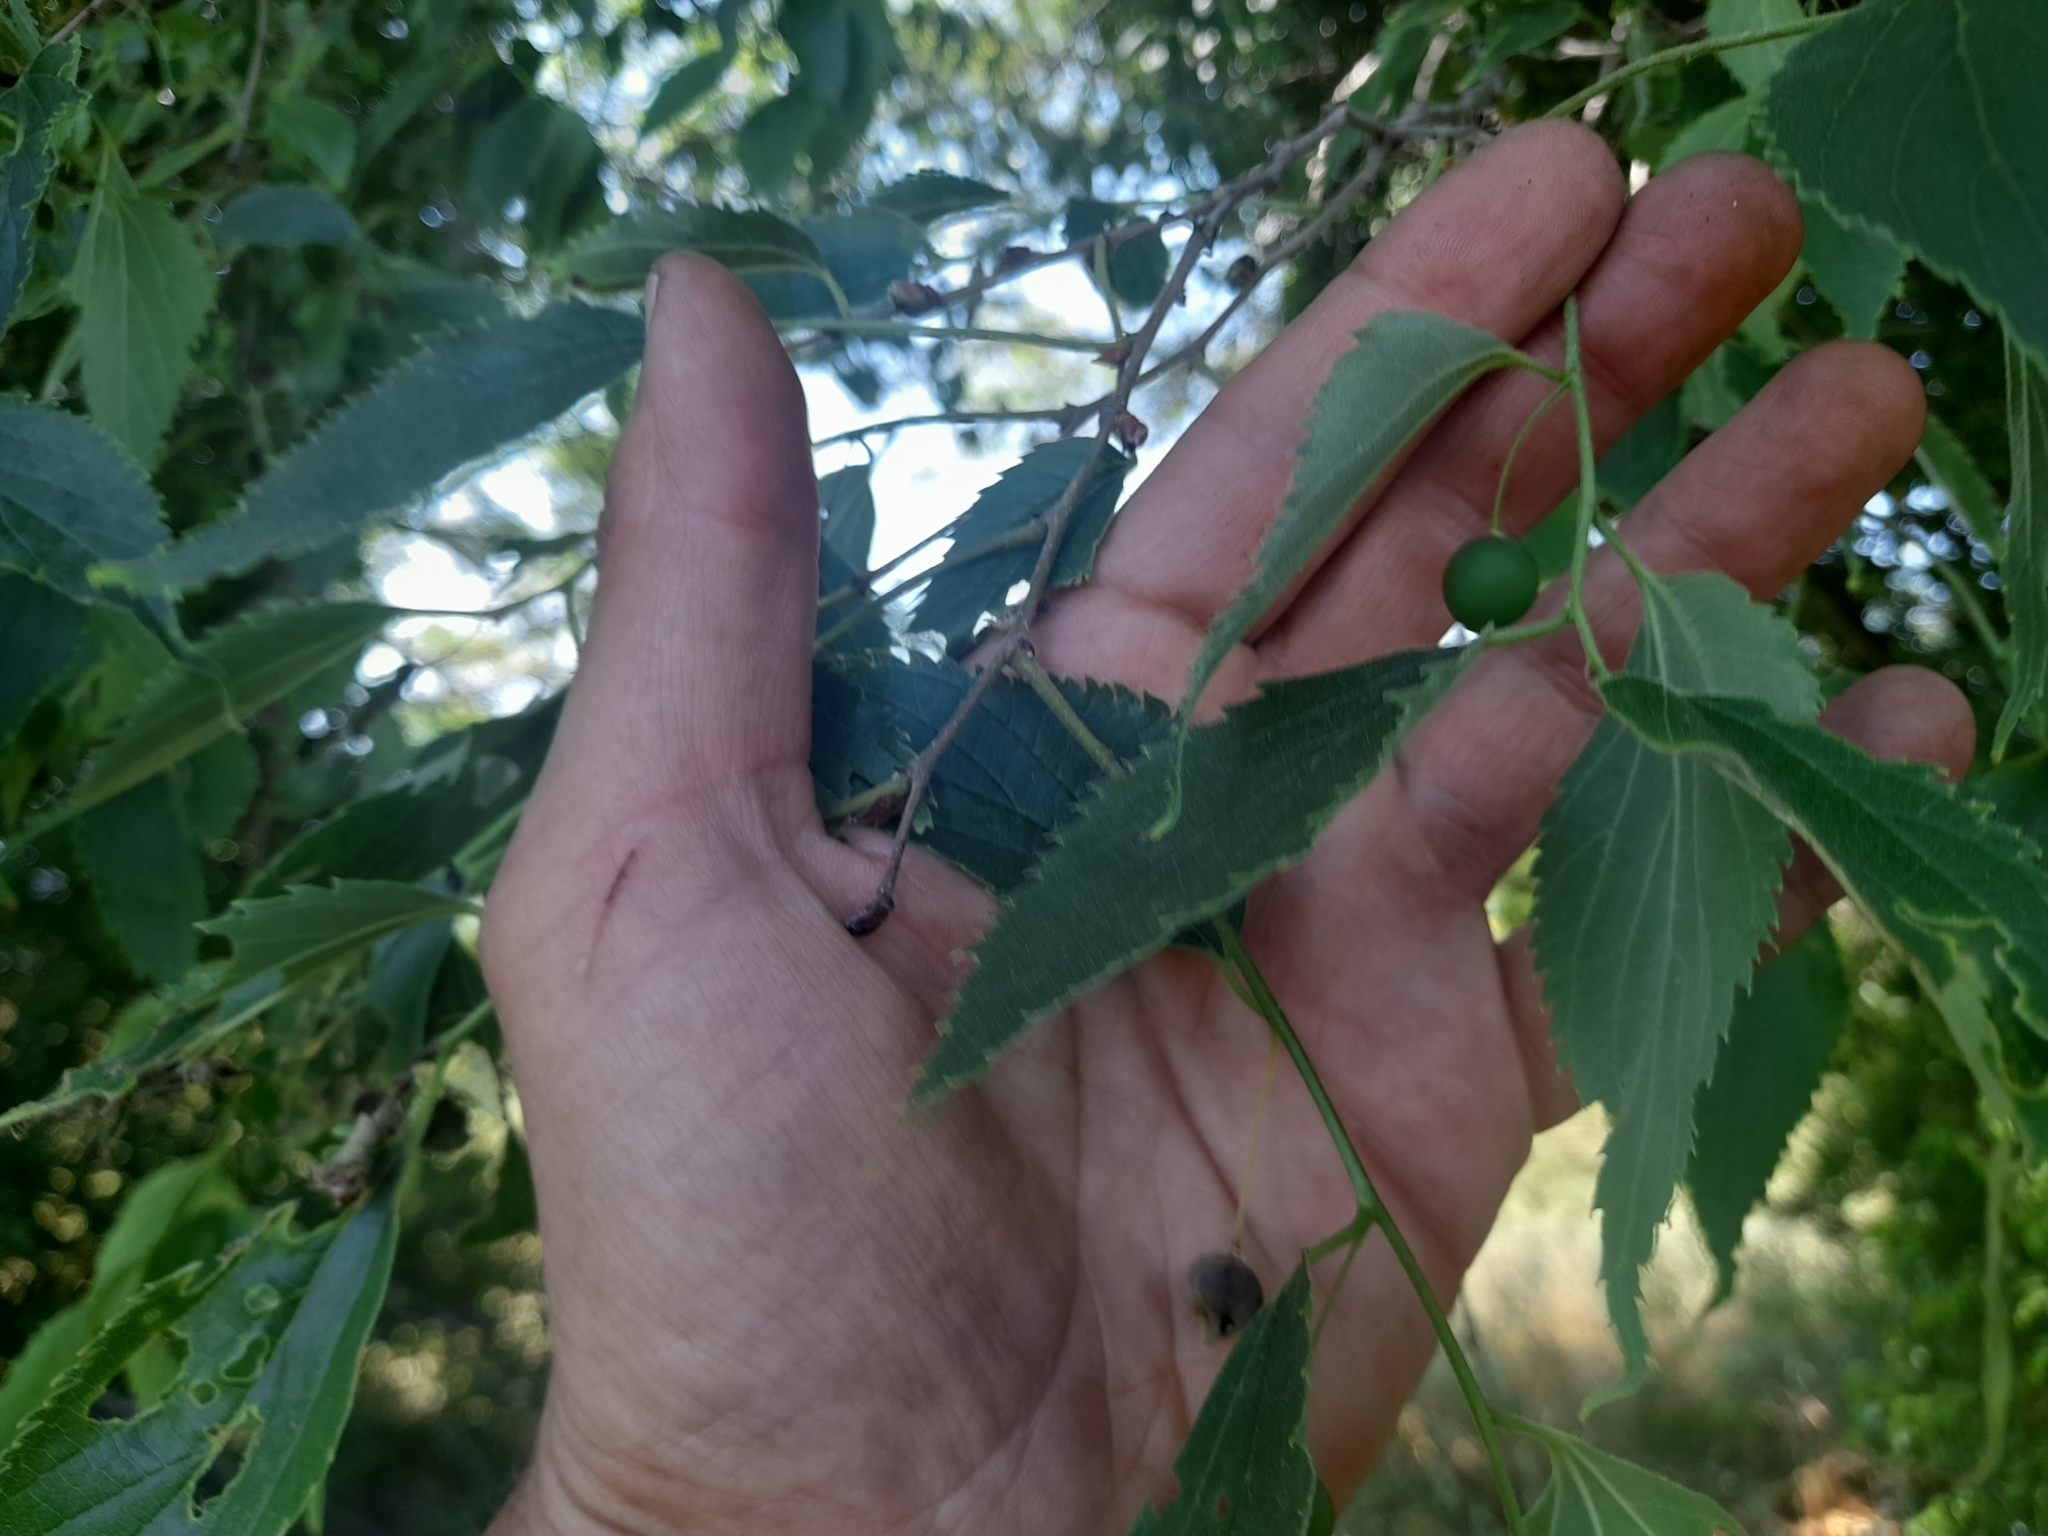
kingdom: Plantae
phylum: Tracheophyta
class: Magnoliopsida
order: Rosales
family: Cannabaceae
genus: Celtis
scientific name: Celtis australis
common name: European hackberry
